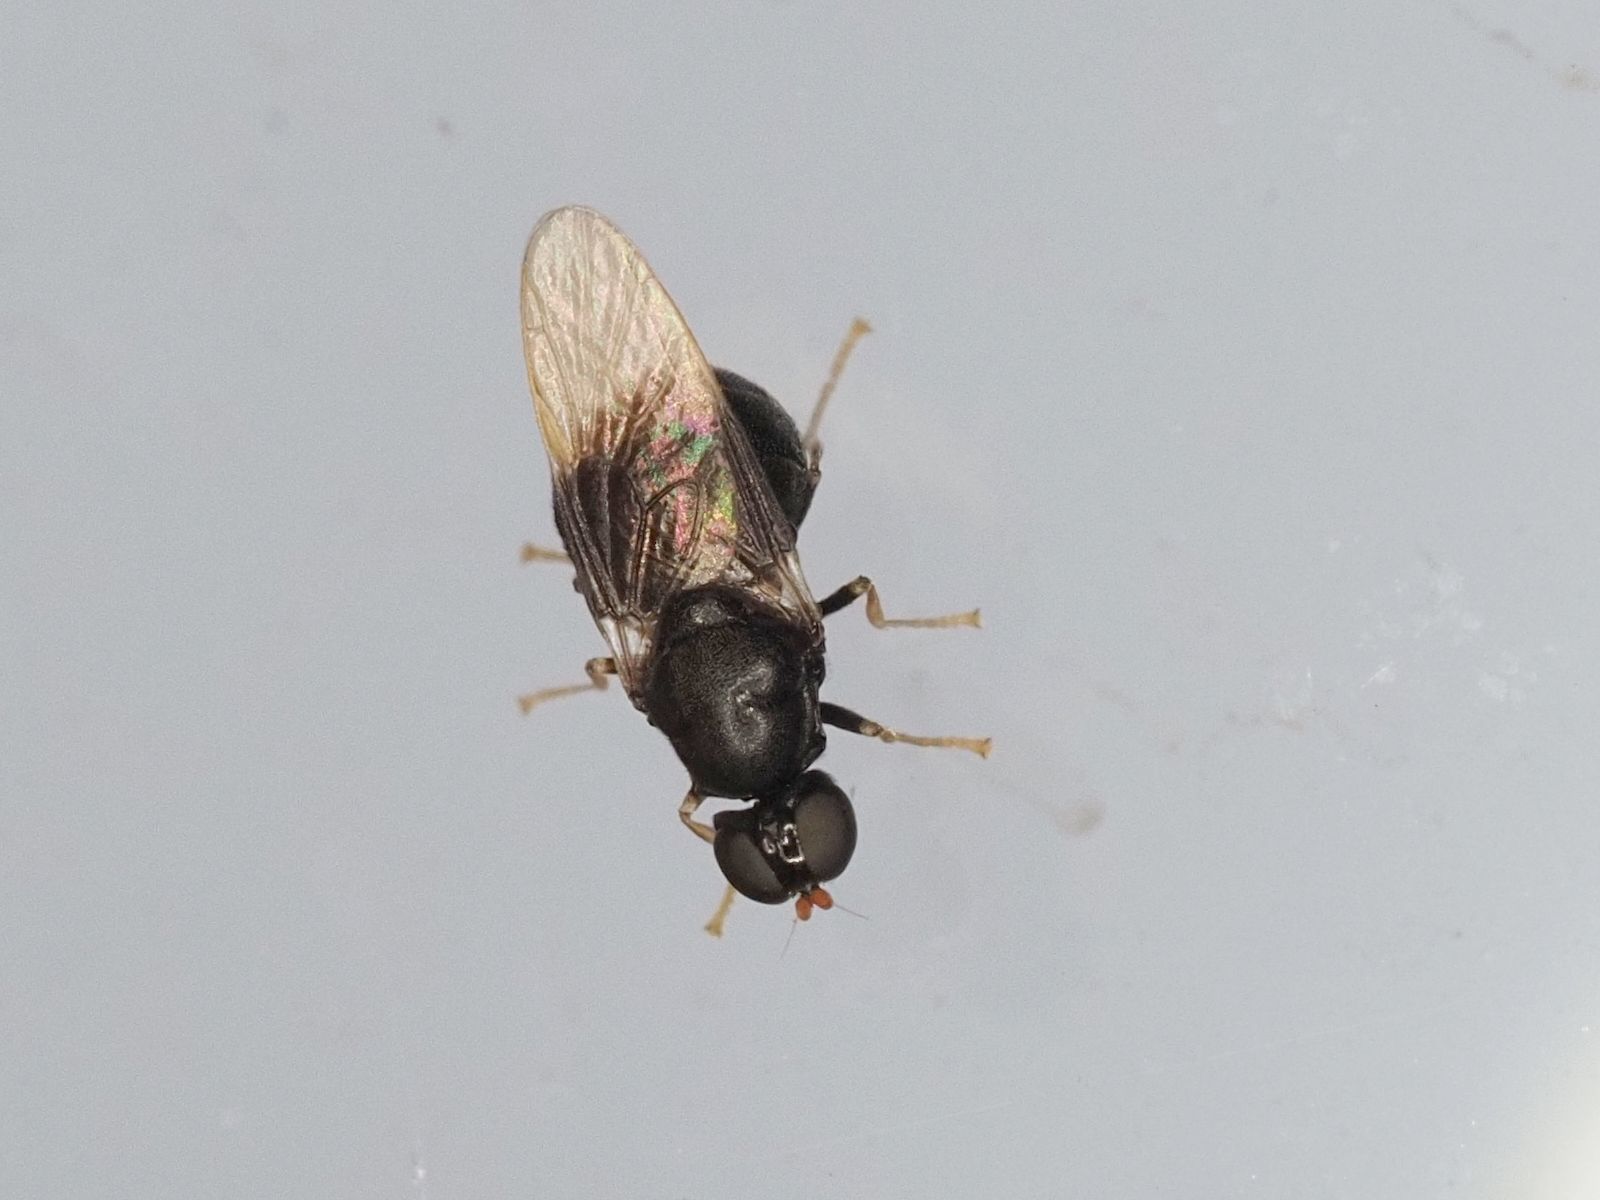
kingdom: Animalia
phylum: Arthropoda
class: Insecta
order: Diptera
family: Stratiomyidae
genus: Pachygaster
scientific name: Pachygaster atra
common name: Dark-winged black
